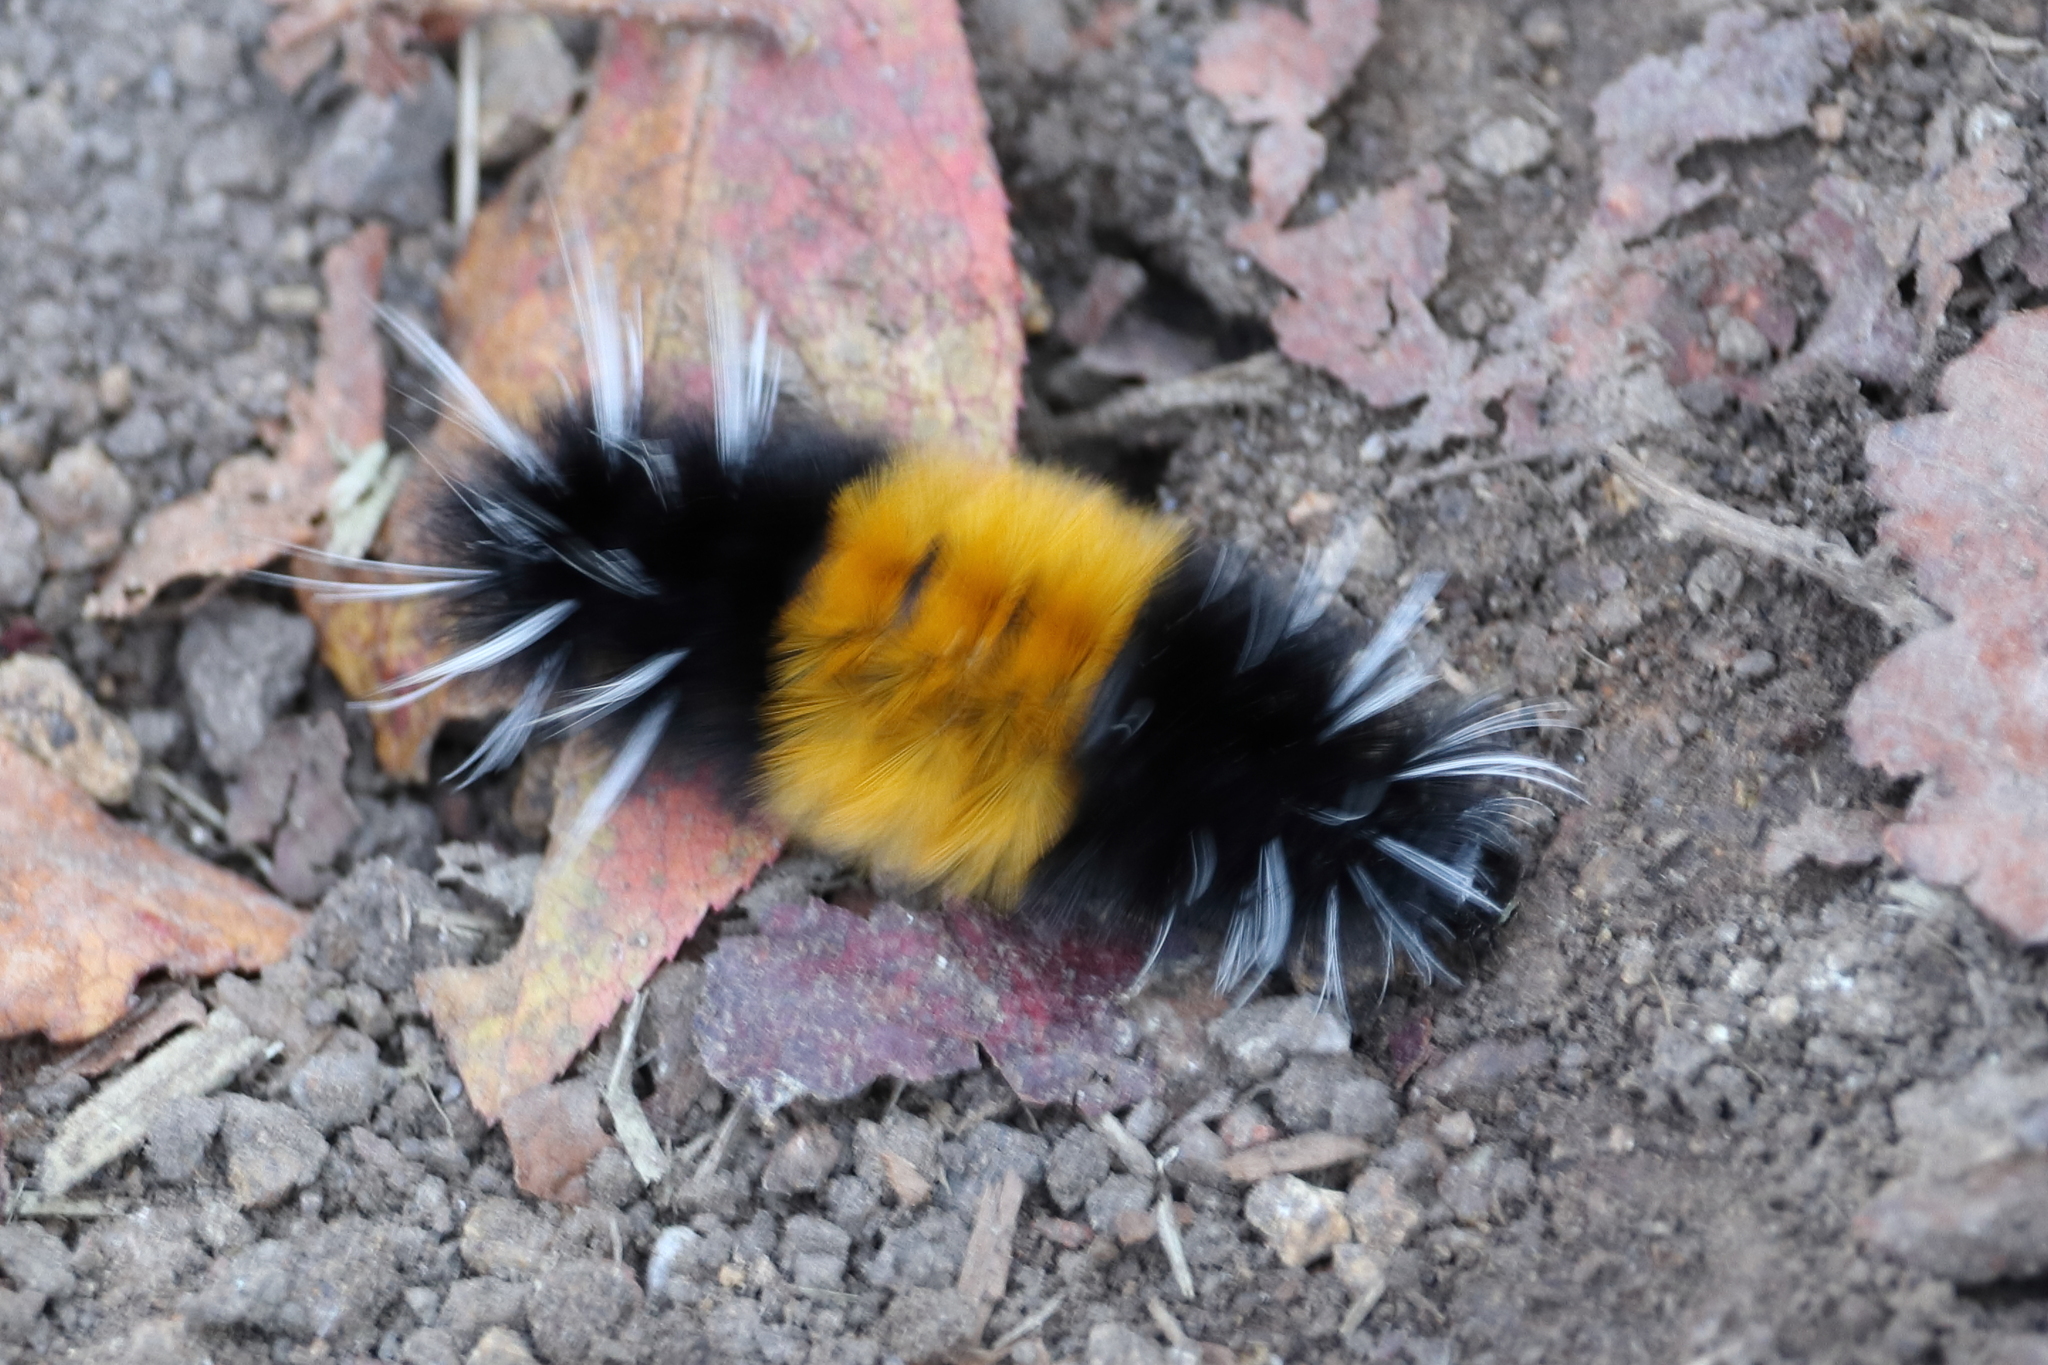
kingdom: Animalia
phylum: Arthropoda
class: Insecta
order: Lepidoptera
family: Erebidae
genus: Lophocampa
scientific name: Lophocampa maculata
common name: Spotted tussock moth
